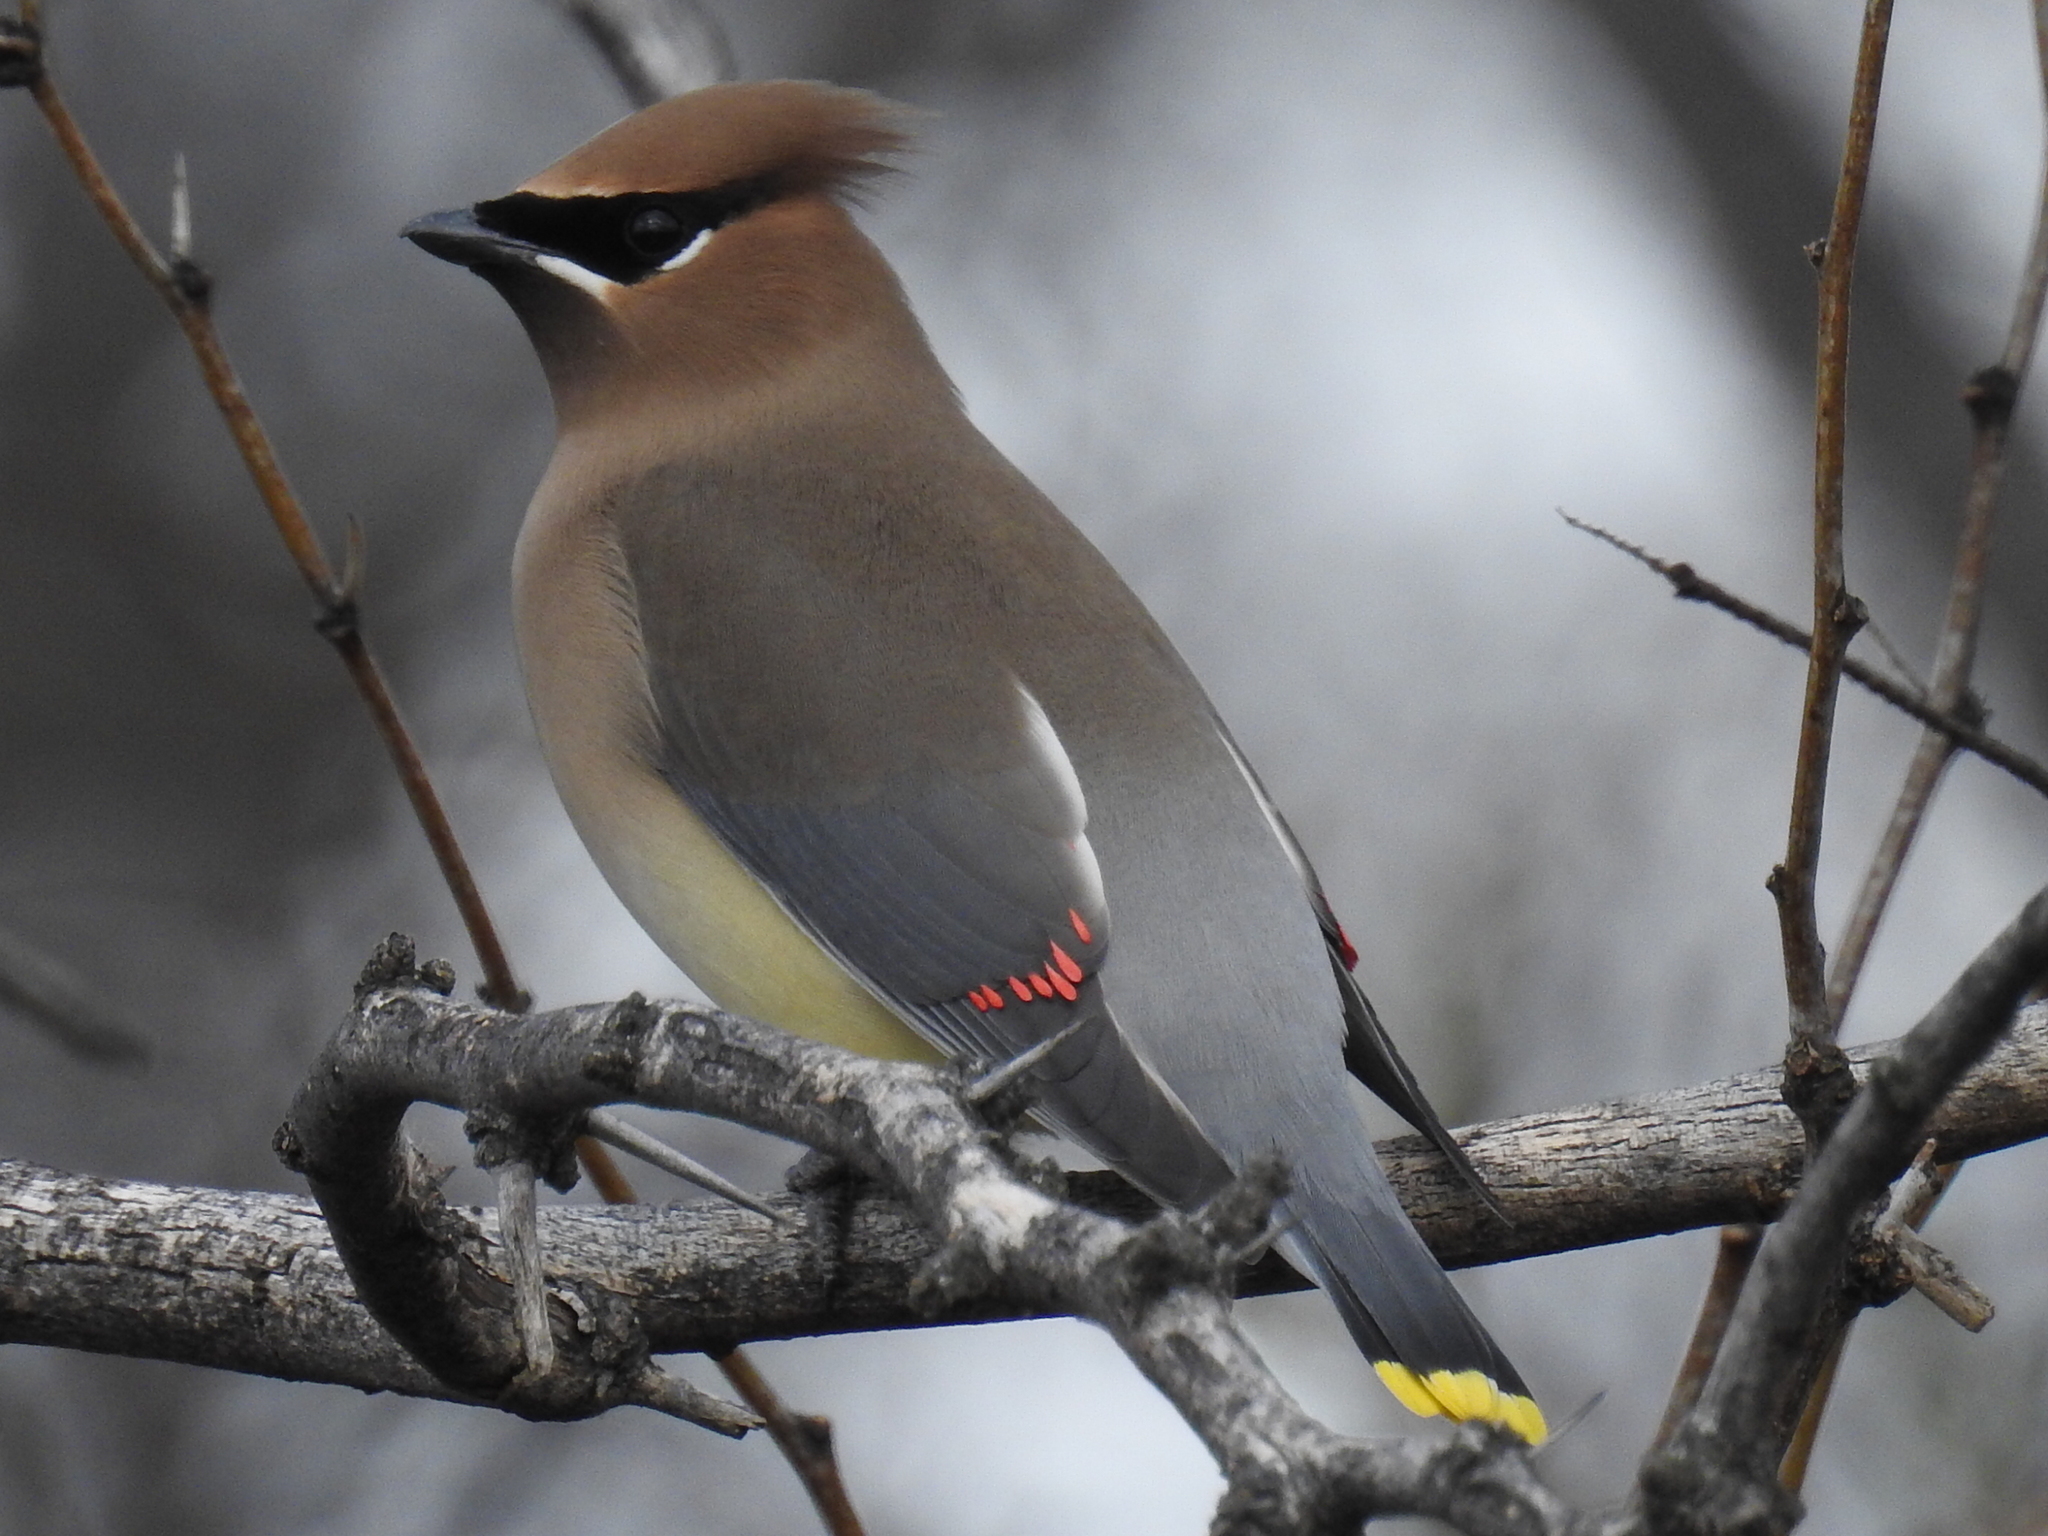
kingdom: Animalia
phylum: Chordata
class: Aves
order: Passeriformes
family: Bombycillidae
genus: Bombycilla
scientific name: Bombycilla cedrorum
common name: Cedar waxwing
